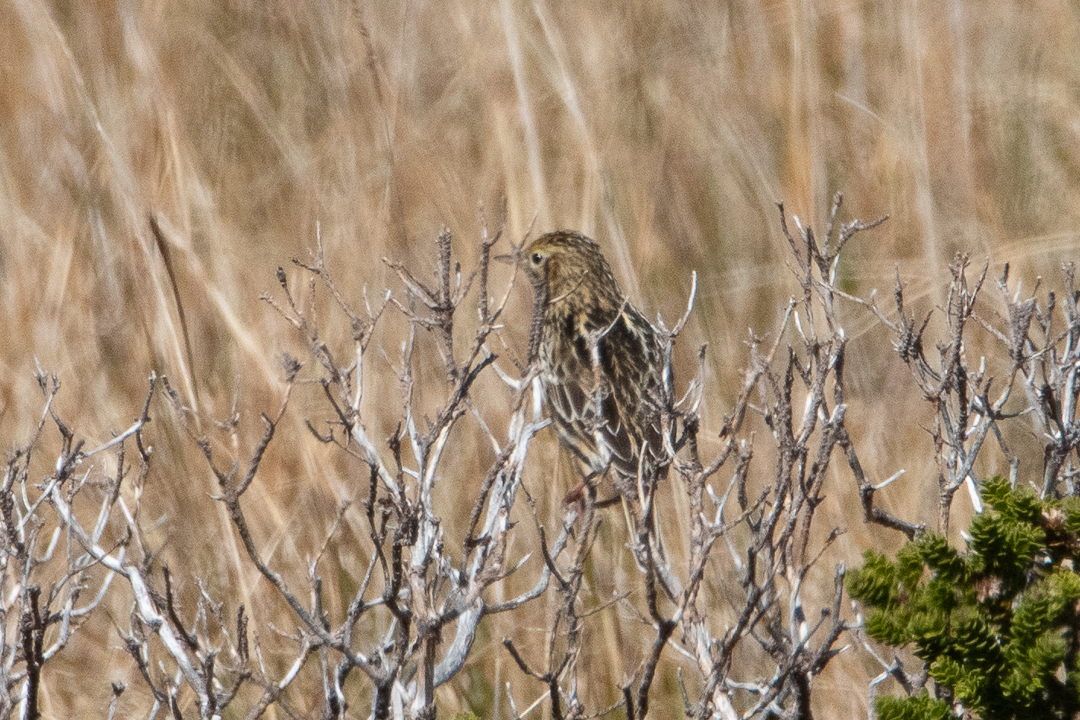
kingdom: Animalia
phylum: Chordata
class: Aves
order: Passeriformes
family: Motacillidae
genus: Anthus
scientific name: Anthus correndera
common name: Correndera pipit
